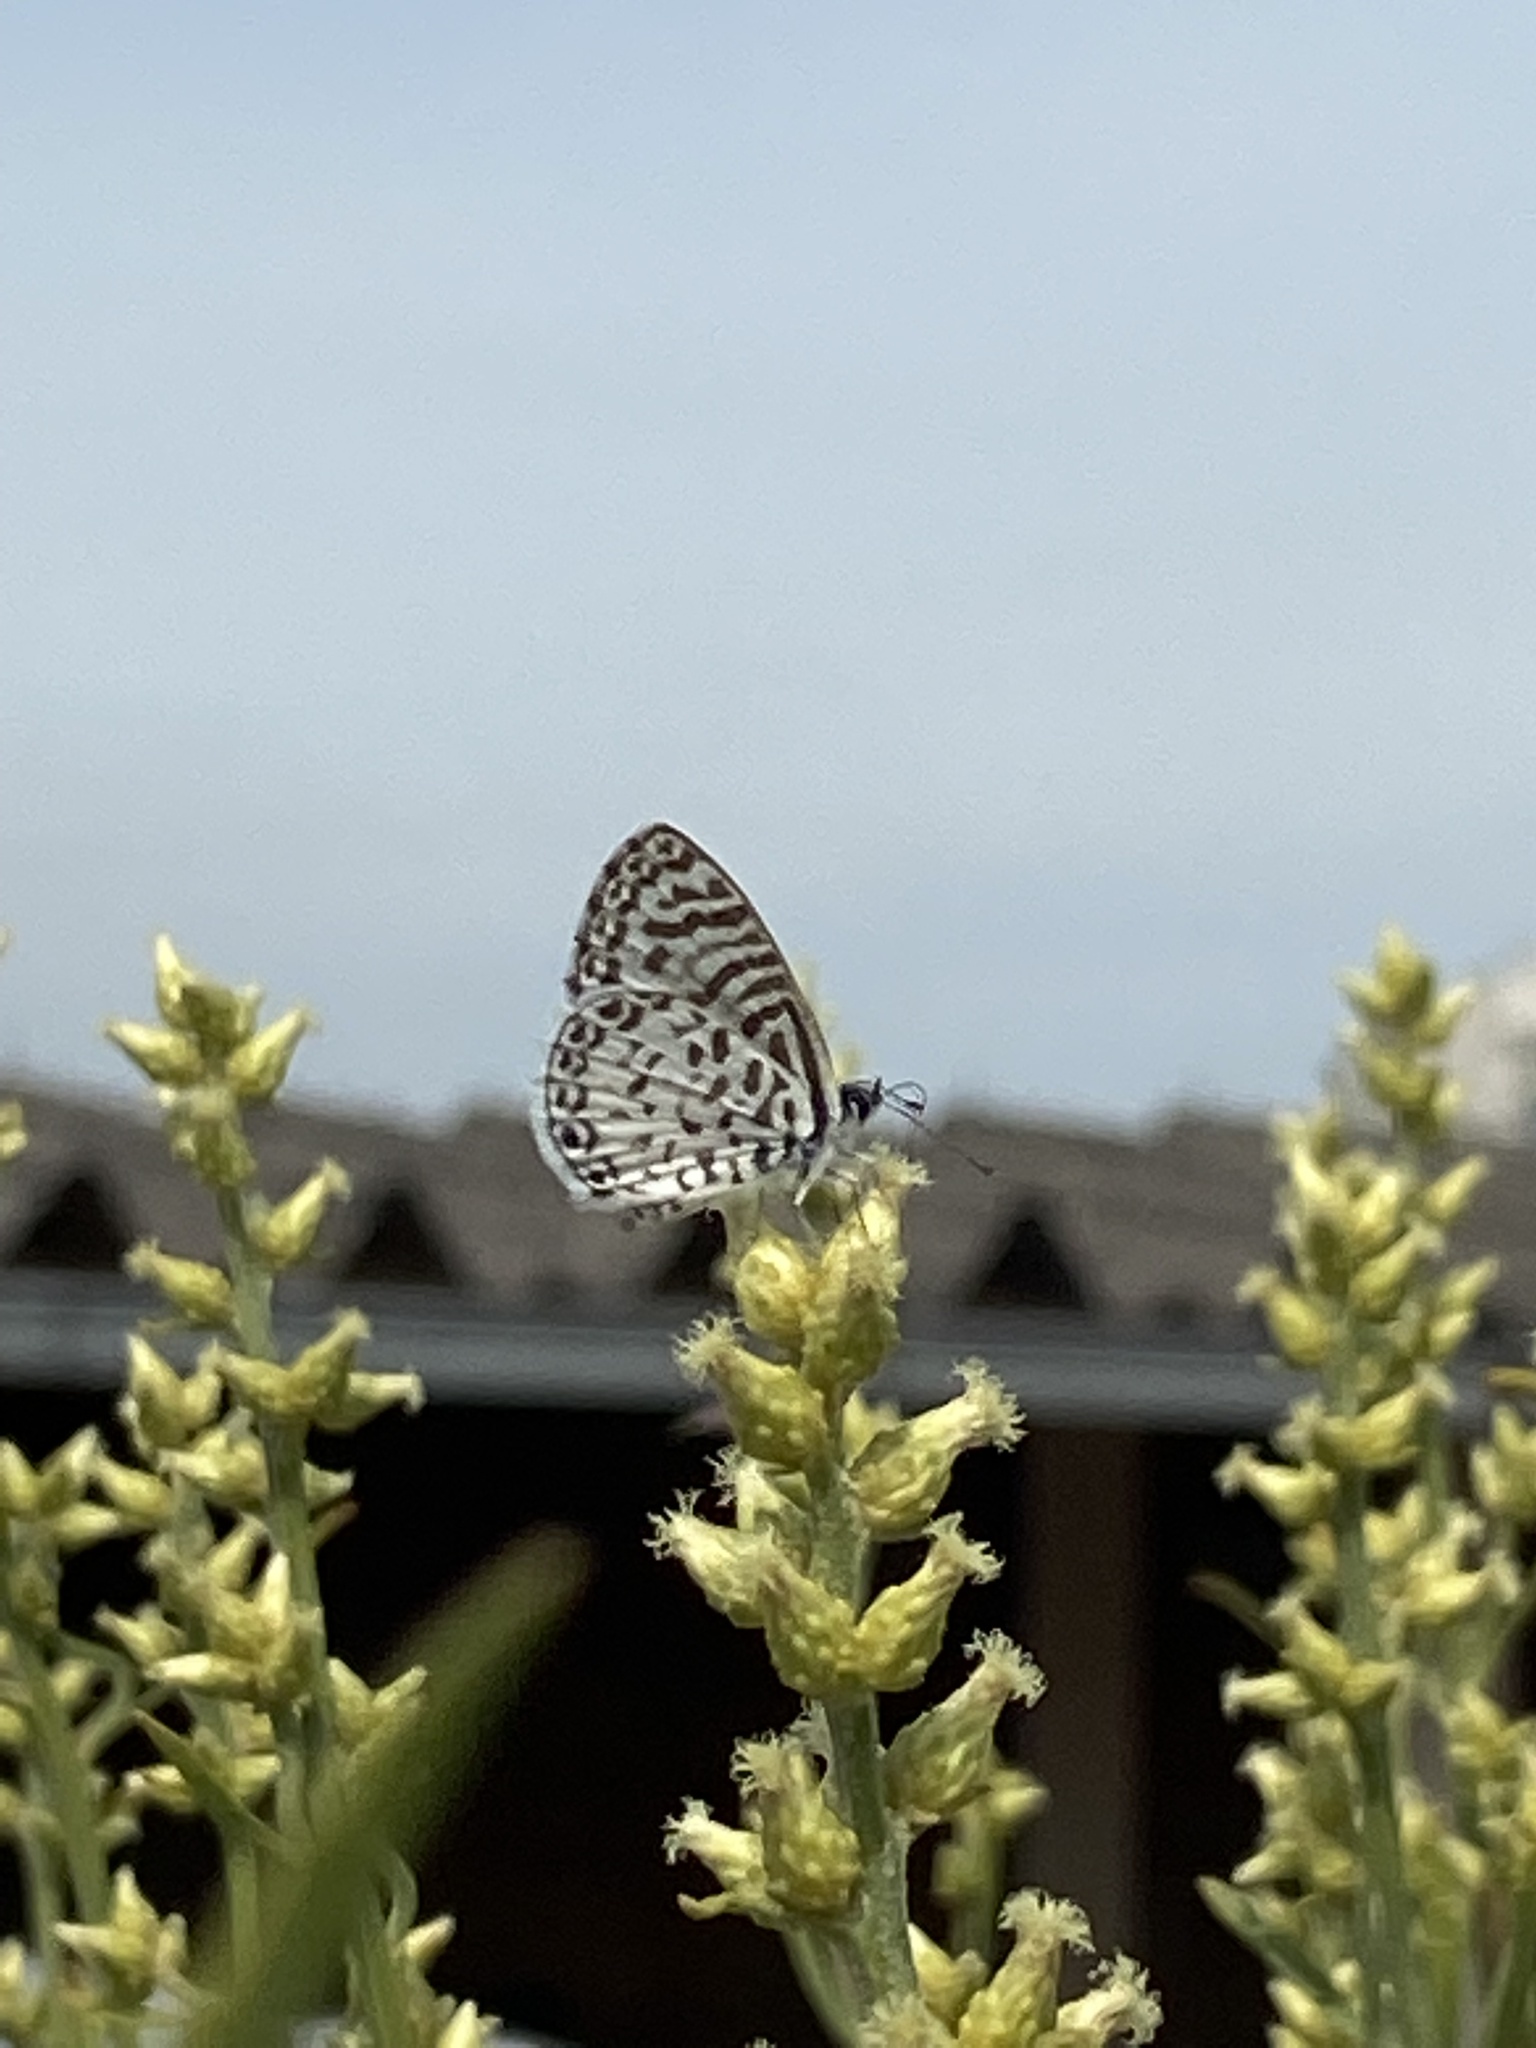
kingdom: Animalia
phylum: Arthropoda
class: Insecta
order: Lepidoptera
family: Lycaenidae
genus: Leptotes
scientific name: Leptotes cassius
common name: Cassius blue
